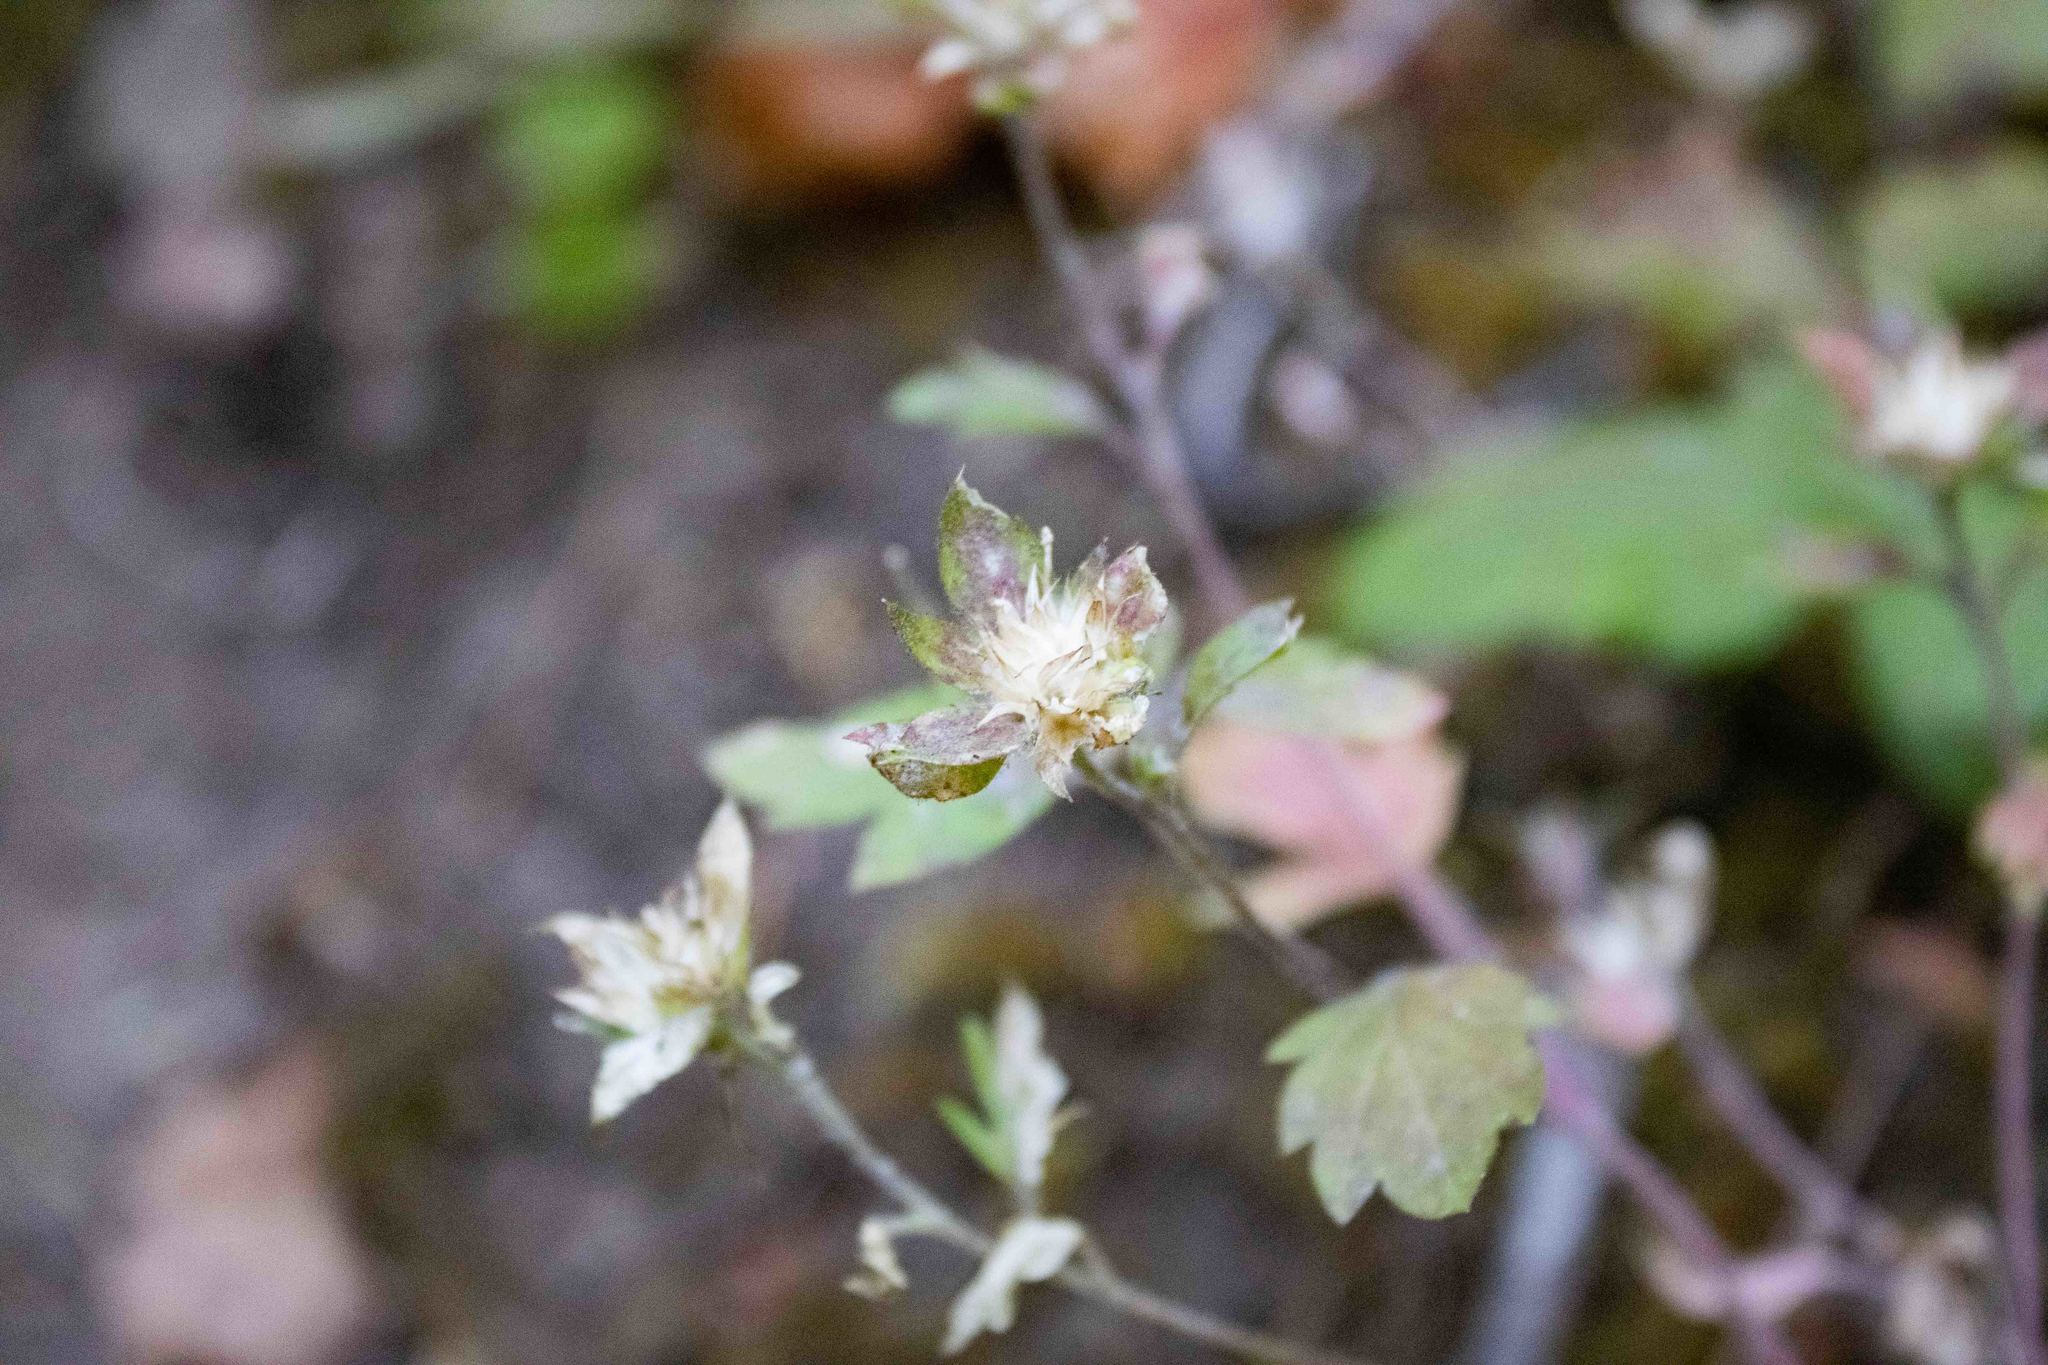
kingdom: Plantae
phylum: Tracheophyta
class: Magnoliopsida
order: Ericales
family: Polemoniaceae
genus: Collomia
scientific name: Collomia heterophylla
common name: Variable-leaved collomia
